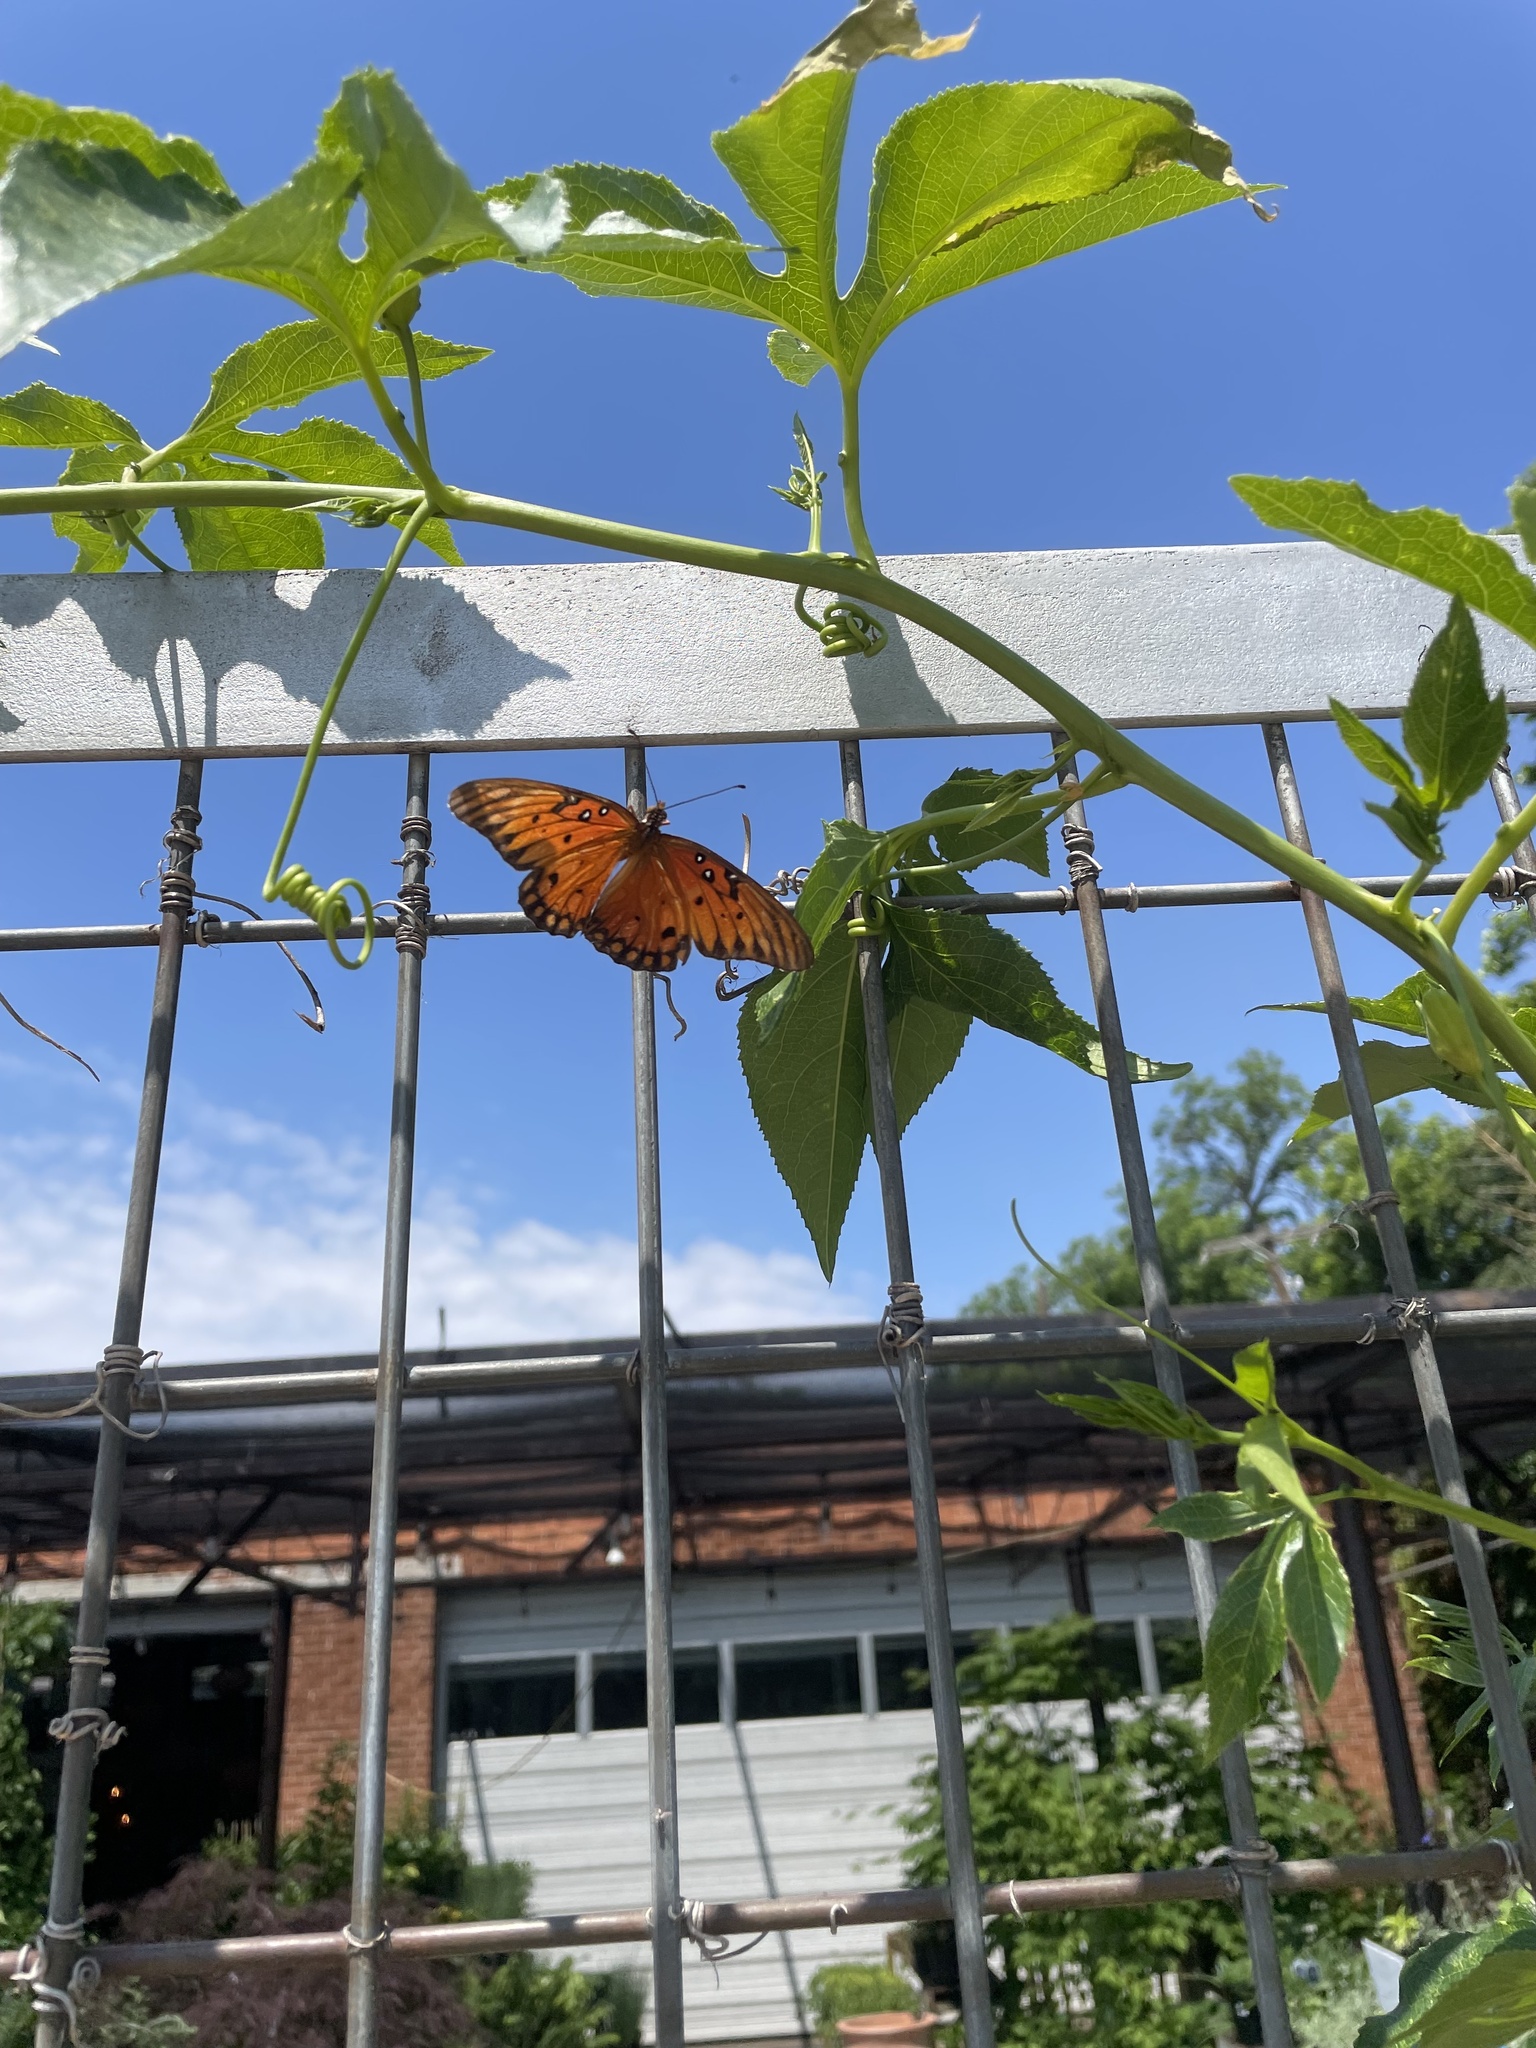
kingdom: Animalia
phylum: Arthropoda
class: Insecta
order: Lepidoptera
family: Nymphalidae
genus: Dione
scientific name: Dione vanillae
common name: Gulf fritillary
